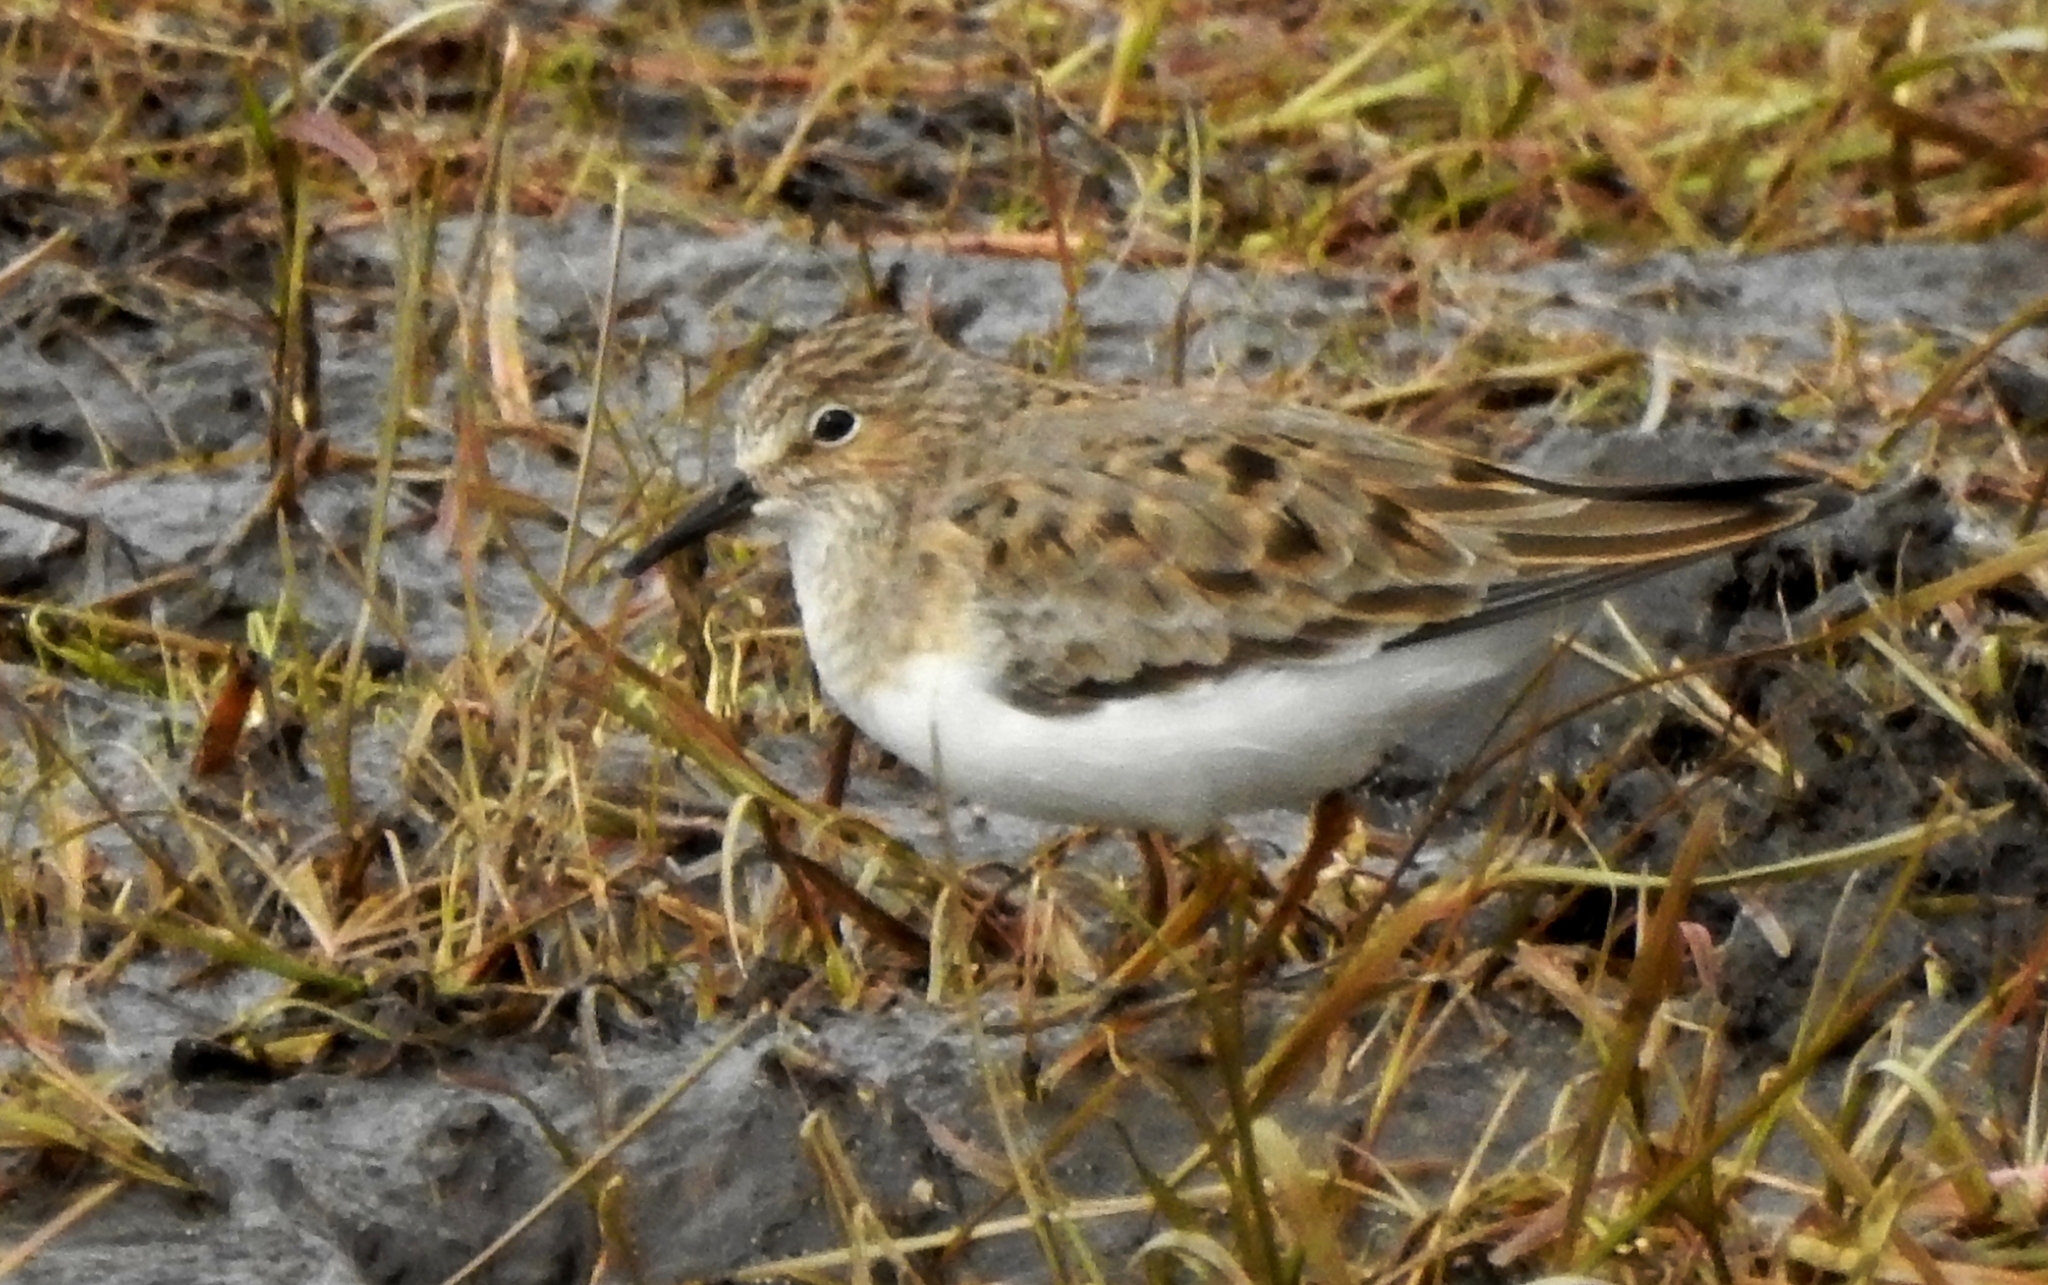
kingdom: Animalia
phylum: Chordata
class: Aves
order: Charadriiformes
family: Scolopacidae
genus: Calidris
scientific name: Calidris temminckii
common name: Temminck's stint
